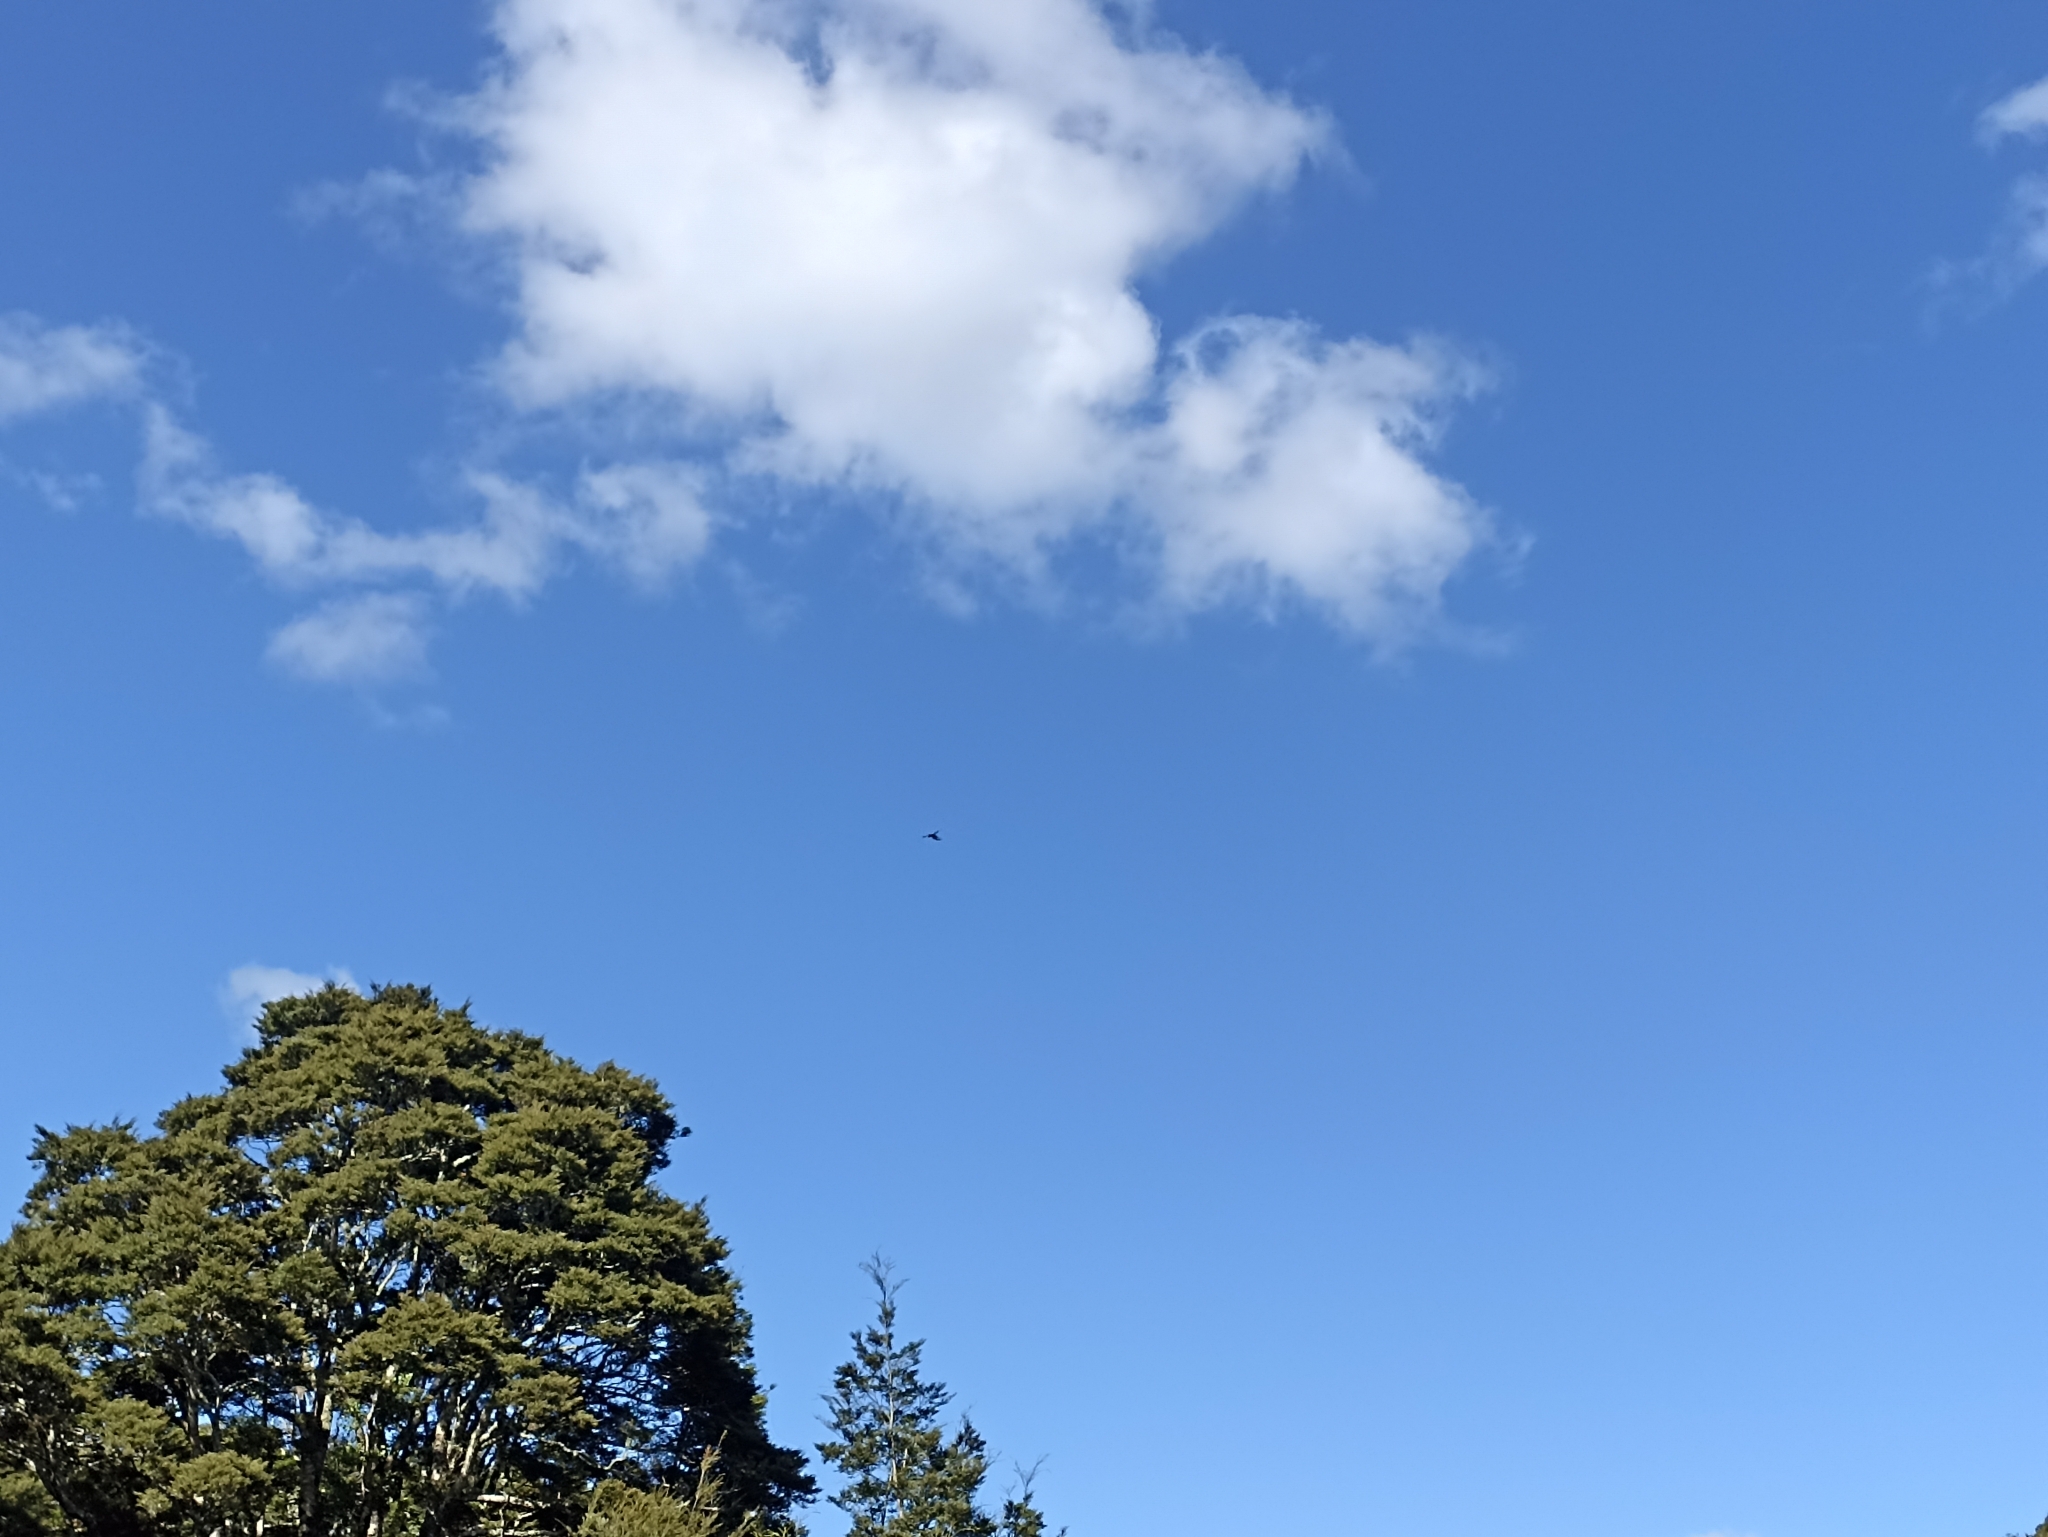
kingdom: Animalia
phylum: Chordata
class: Aves
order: Falconiformes
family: Falconidae
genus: Falco
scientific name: Falco novaeseelandiae
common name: New zealand falcon
